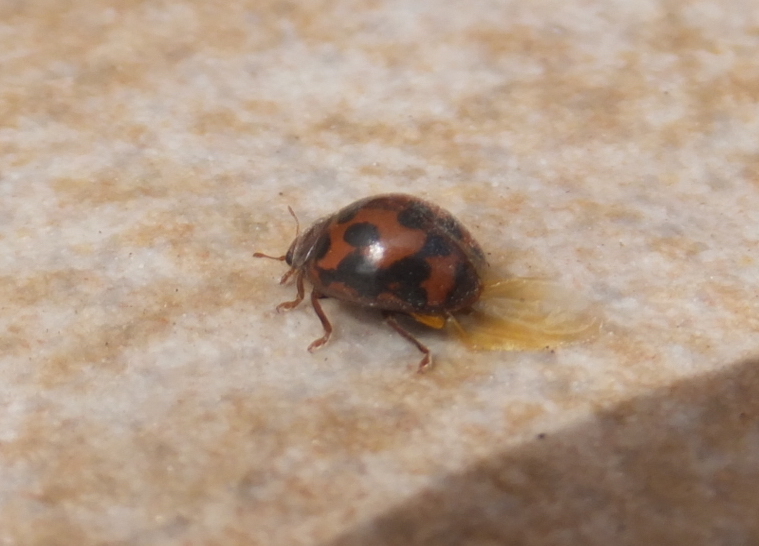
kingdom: Animalia
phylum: Arthropoda
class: Insecta
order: Coleoptera
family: Coccinellidae
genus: Subcoccinella
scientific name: Subcoccinella vigintiquatuorpunctata
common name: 24-spot ladybird
